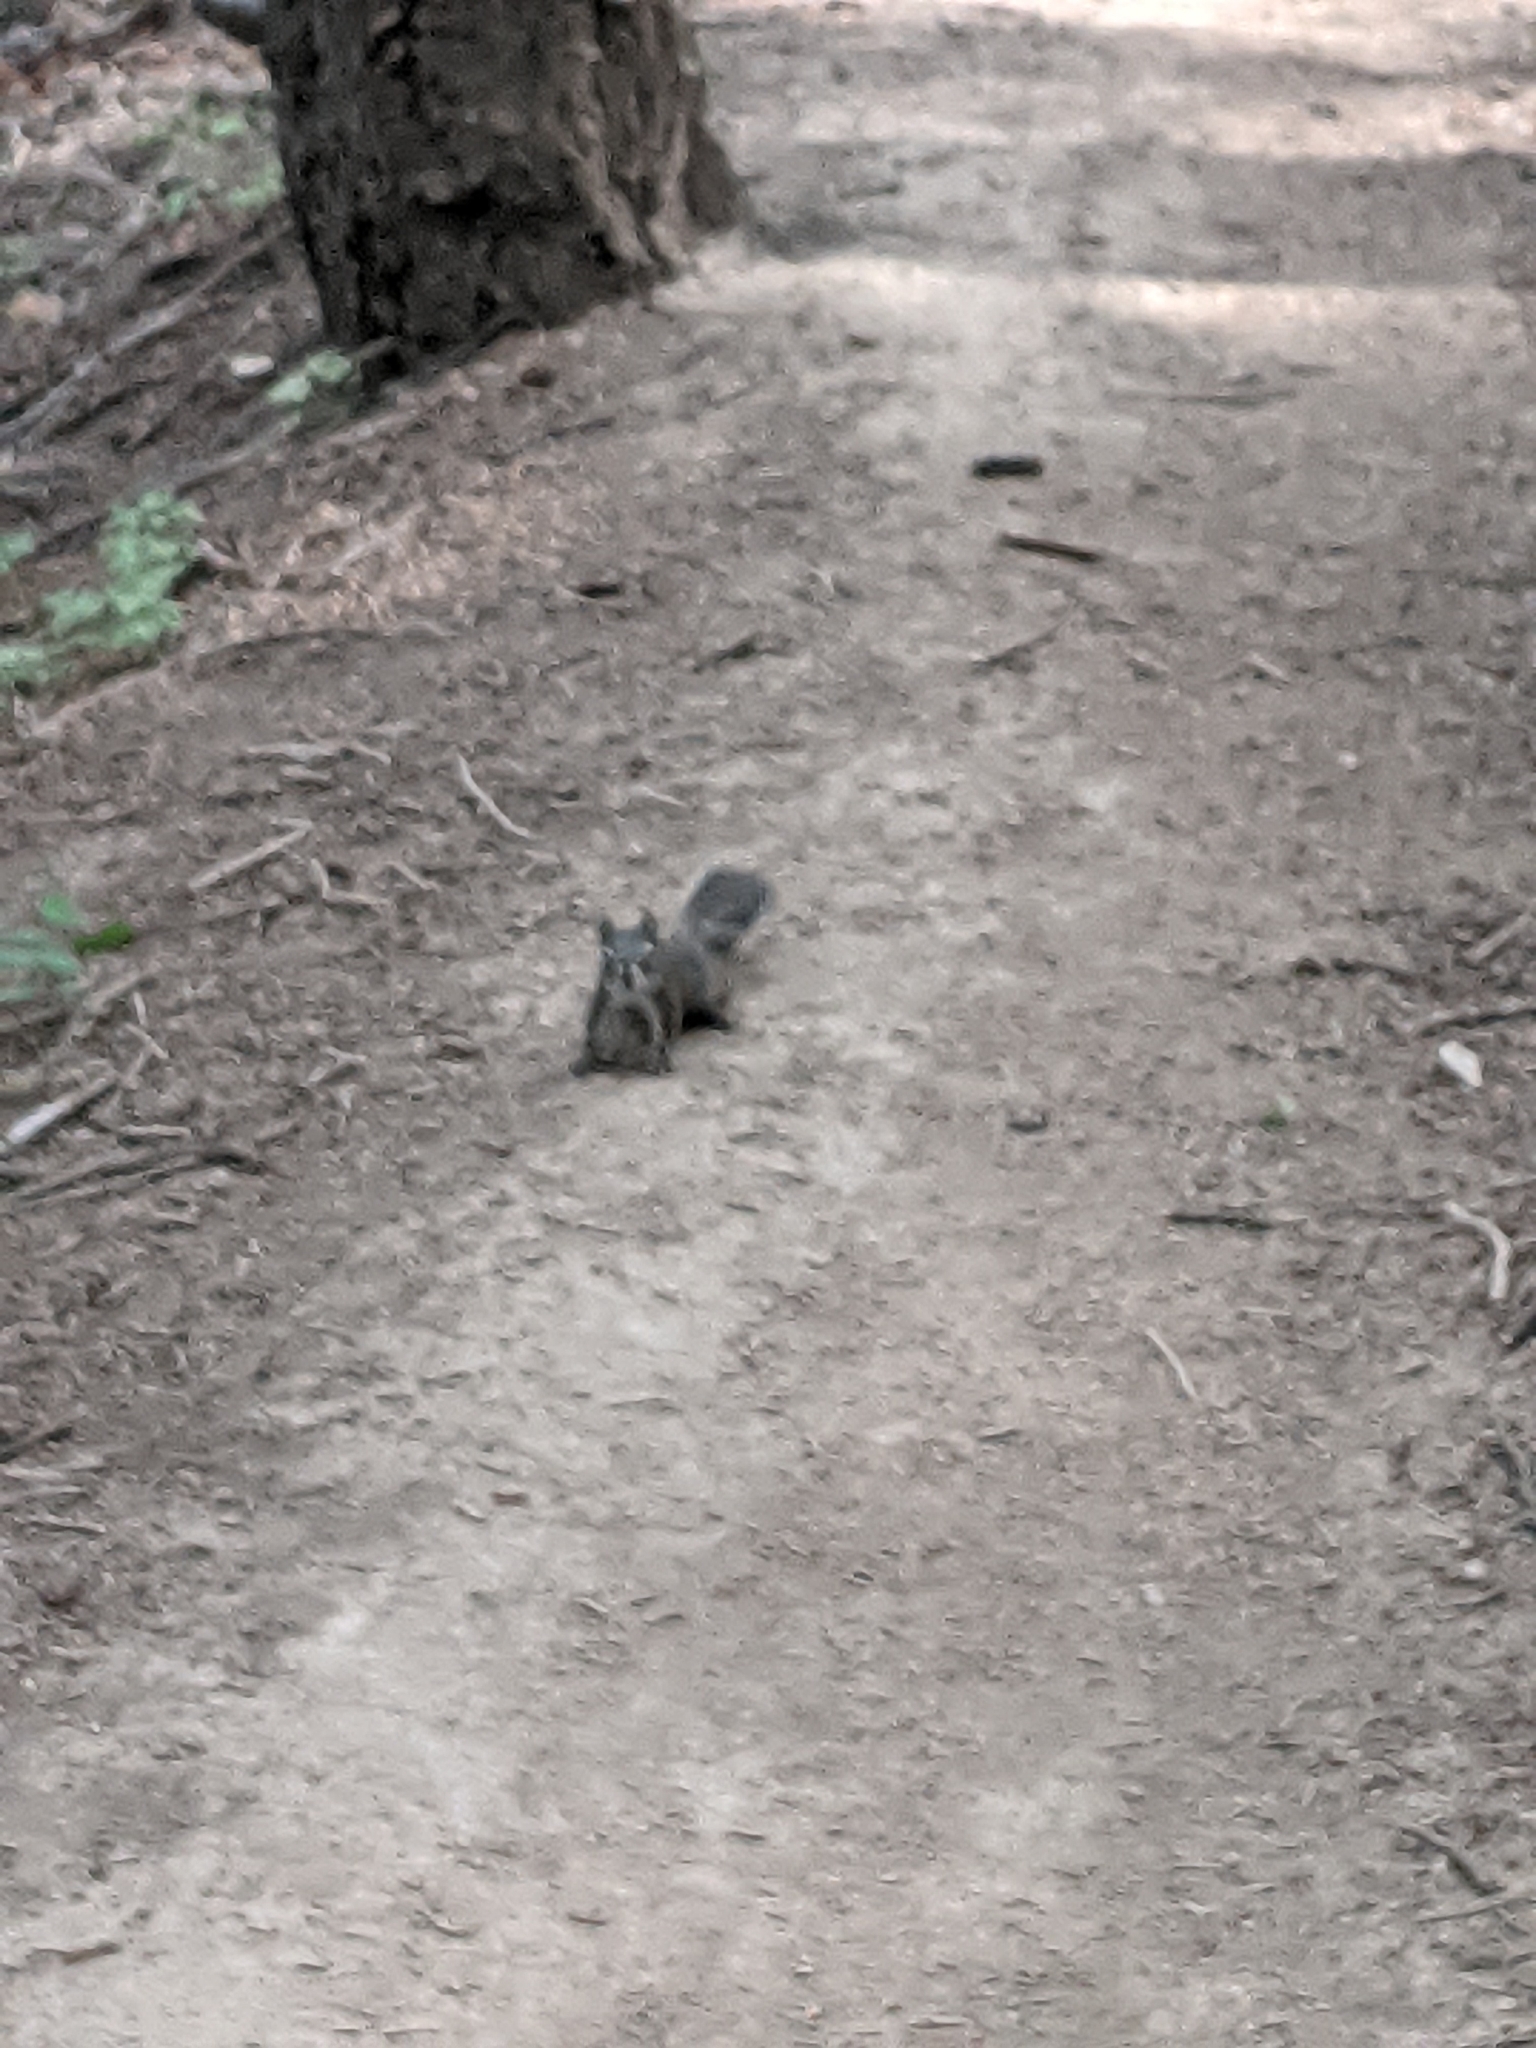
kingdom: Animalia
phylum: Chordata
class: Mammalia
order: Rodentia
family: Sciuridae
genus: Tamiasciurus
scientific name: Tamiasciurus hudsonicus
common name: Red squirrel
